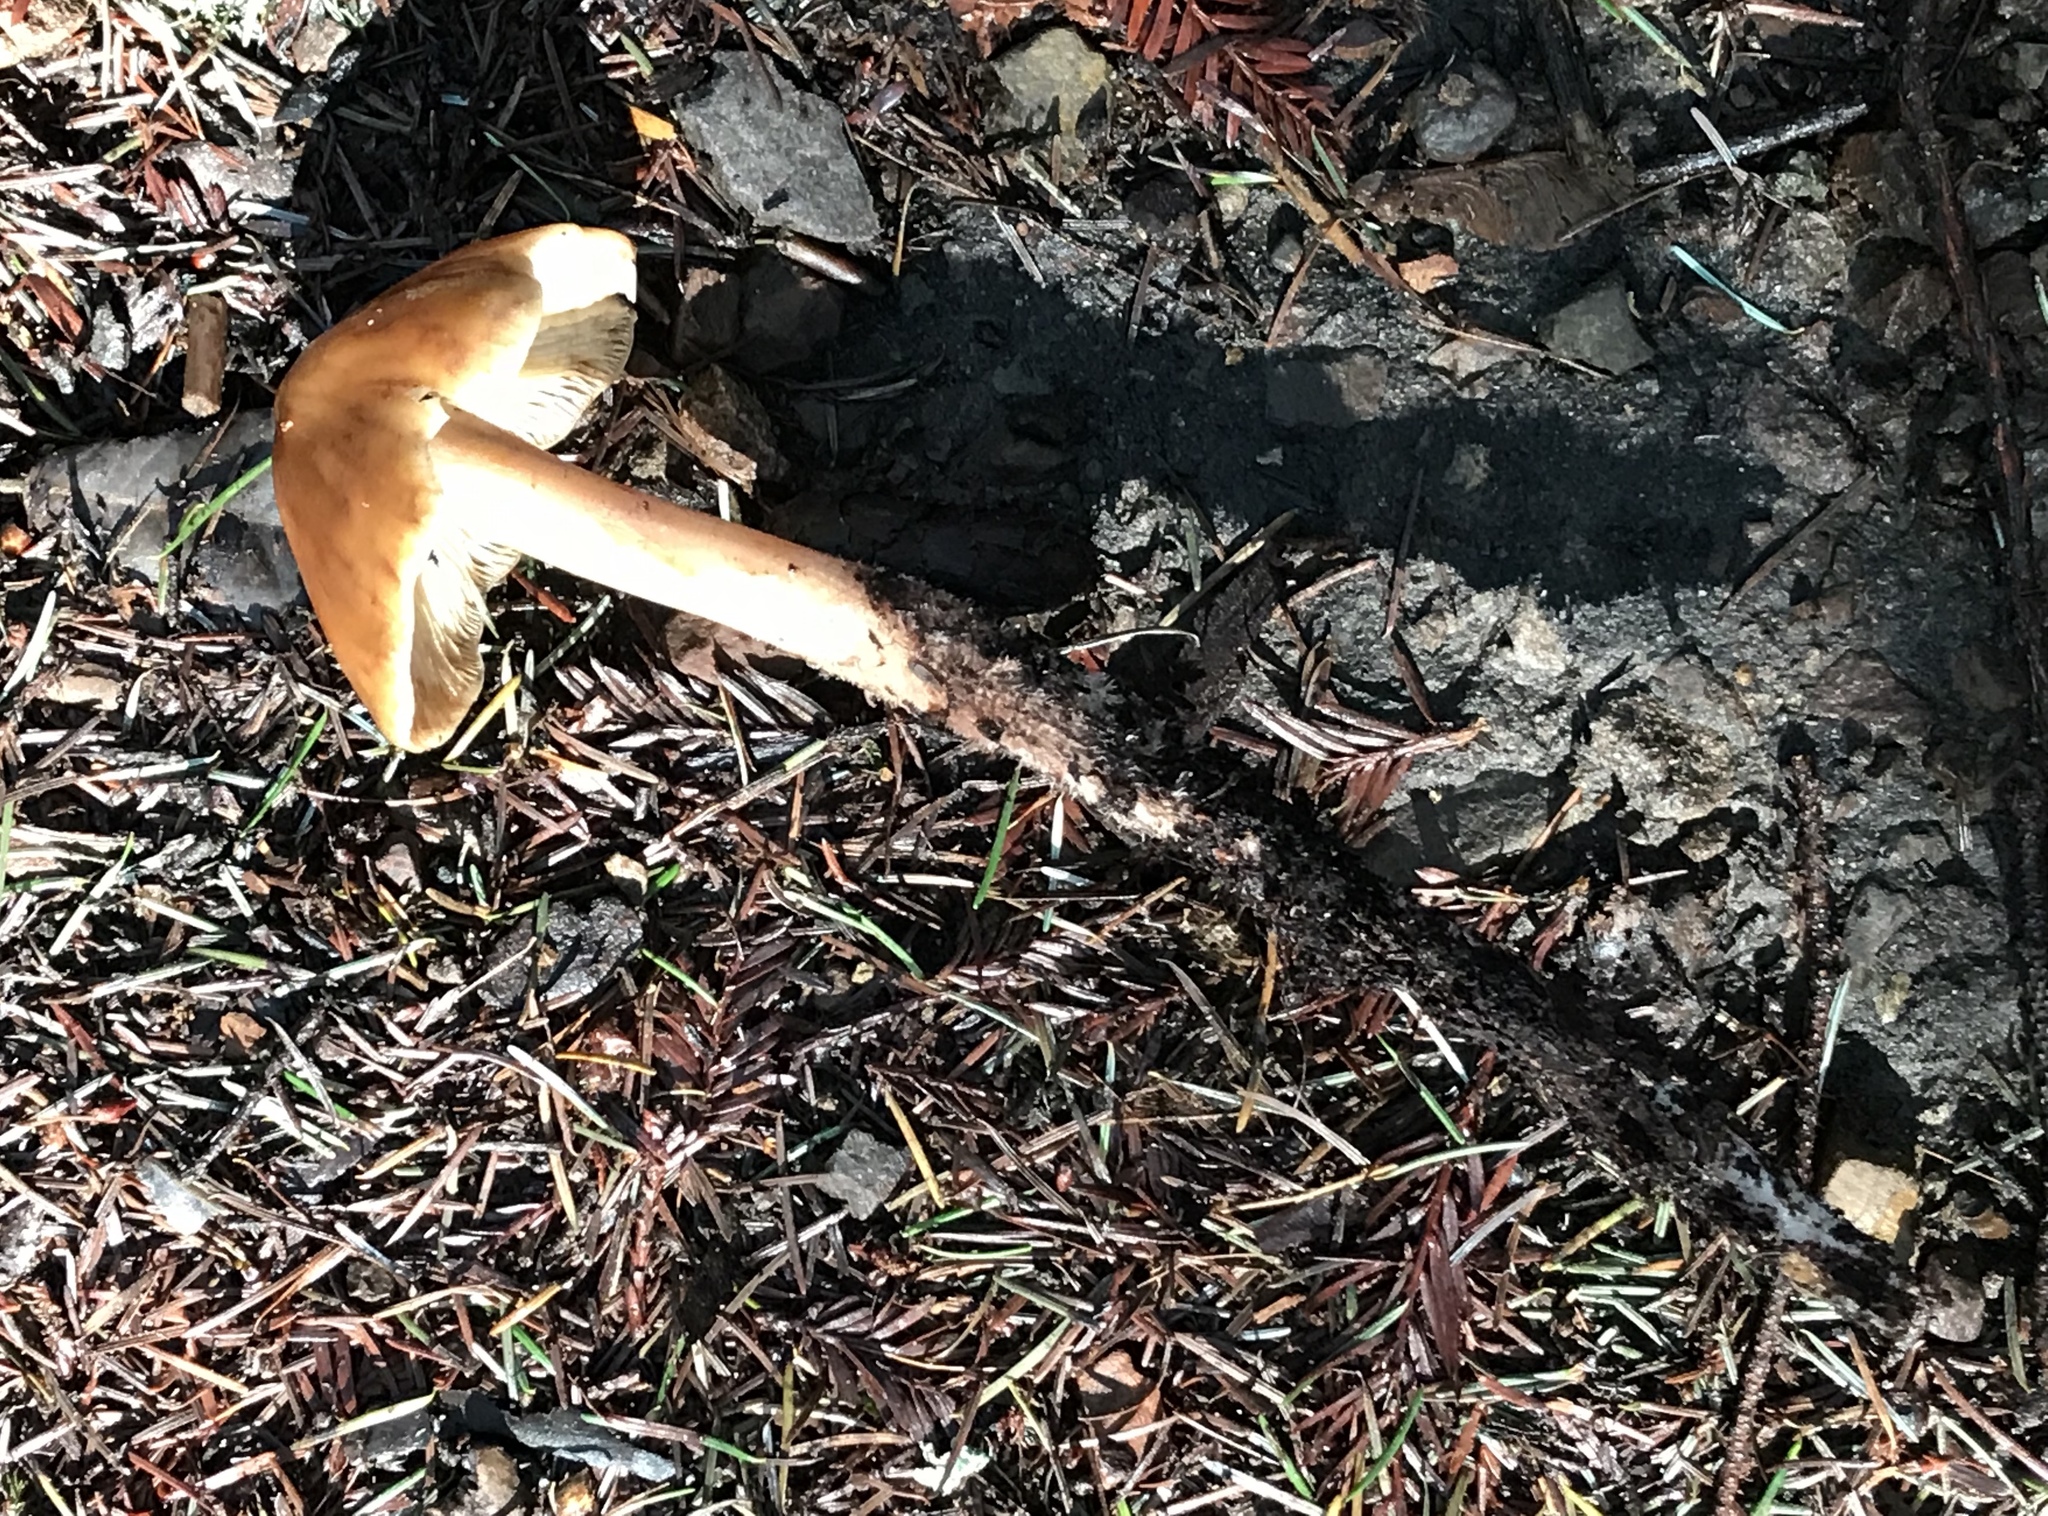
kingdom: Fungi
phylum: Basidiomycota
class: Agaricomycetes
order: Agaricales
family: Tricholomataceae
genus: Caulorhiza
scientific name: Caulorhiza umbonata
